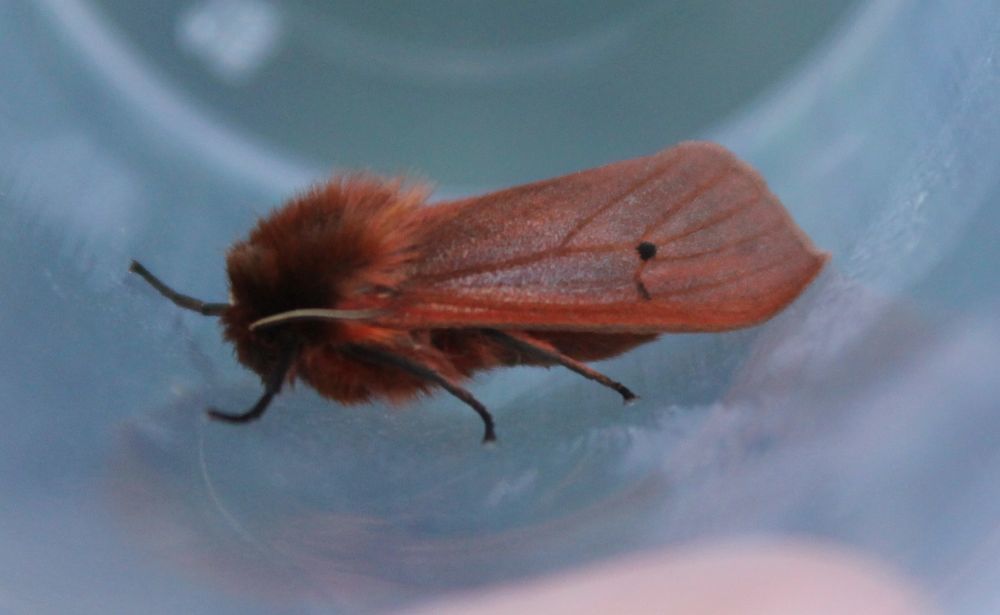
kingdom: Animalia
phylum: Arthropoda
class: Insecta
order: Lepidoptera
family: Erebidae
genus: Phragmatobia
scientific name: Phragmatobia fuliginosa
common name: Ruby tiger
